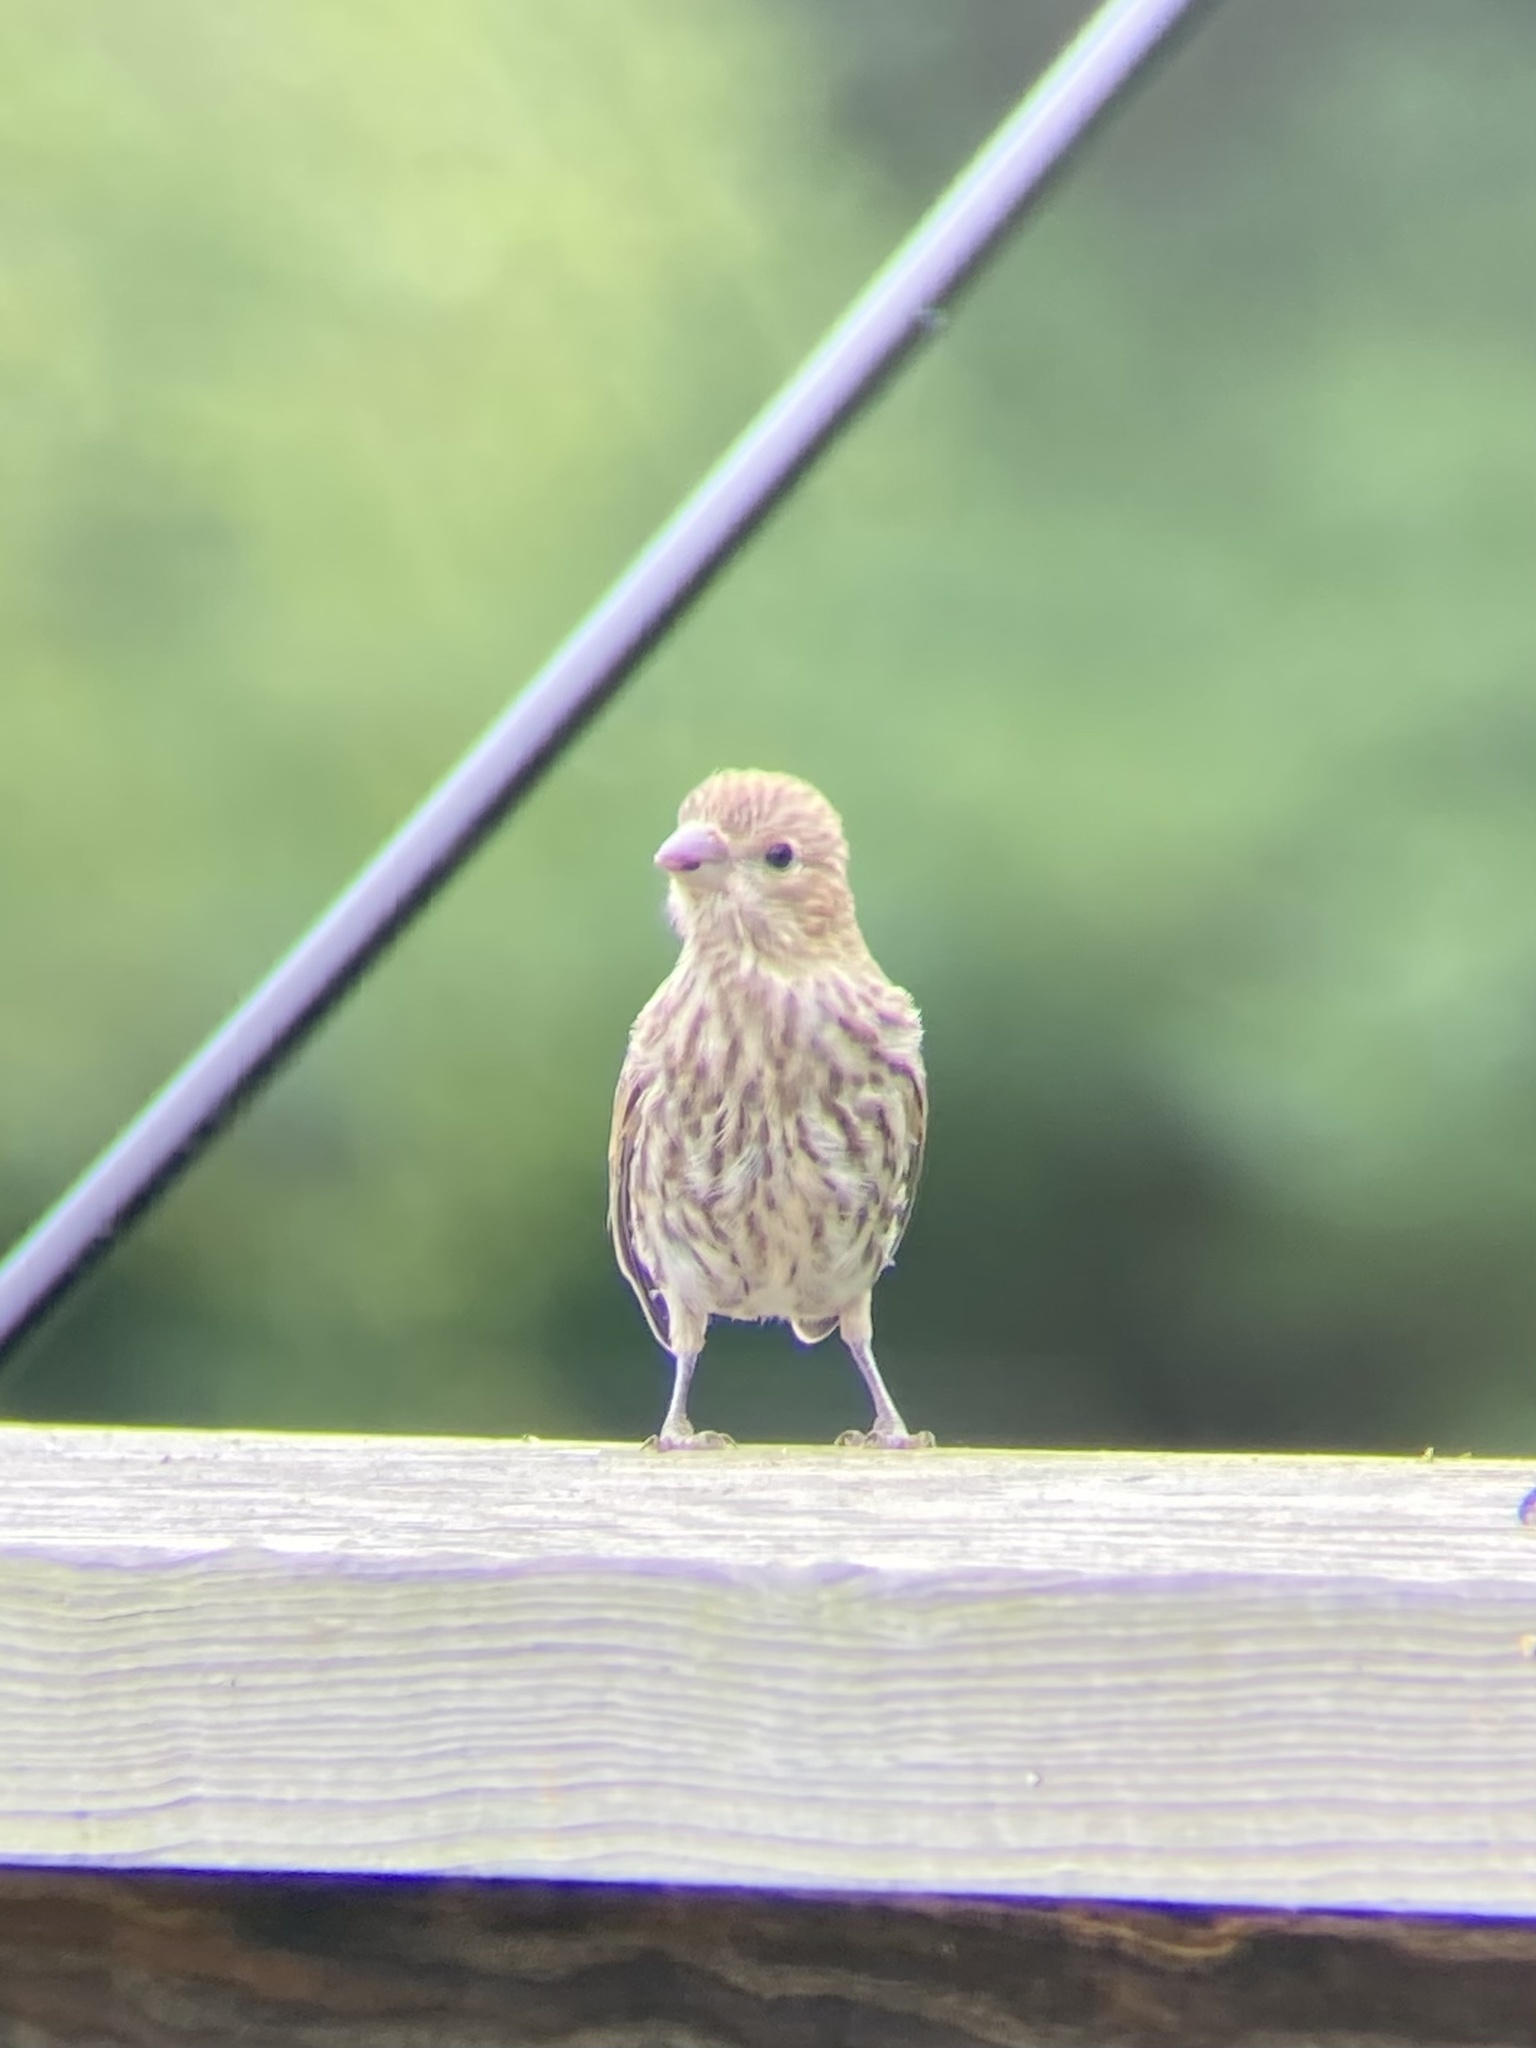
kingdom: Animalia
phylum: Chordata
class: Aves
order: Passeriformes
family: Fringillidae
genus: Haemorhous
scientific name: Haemorhous mexicanus
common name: House finch
